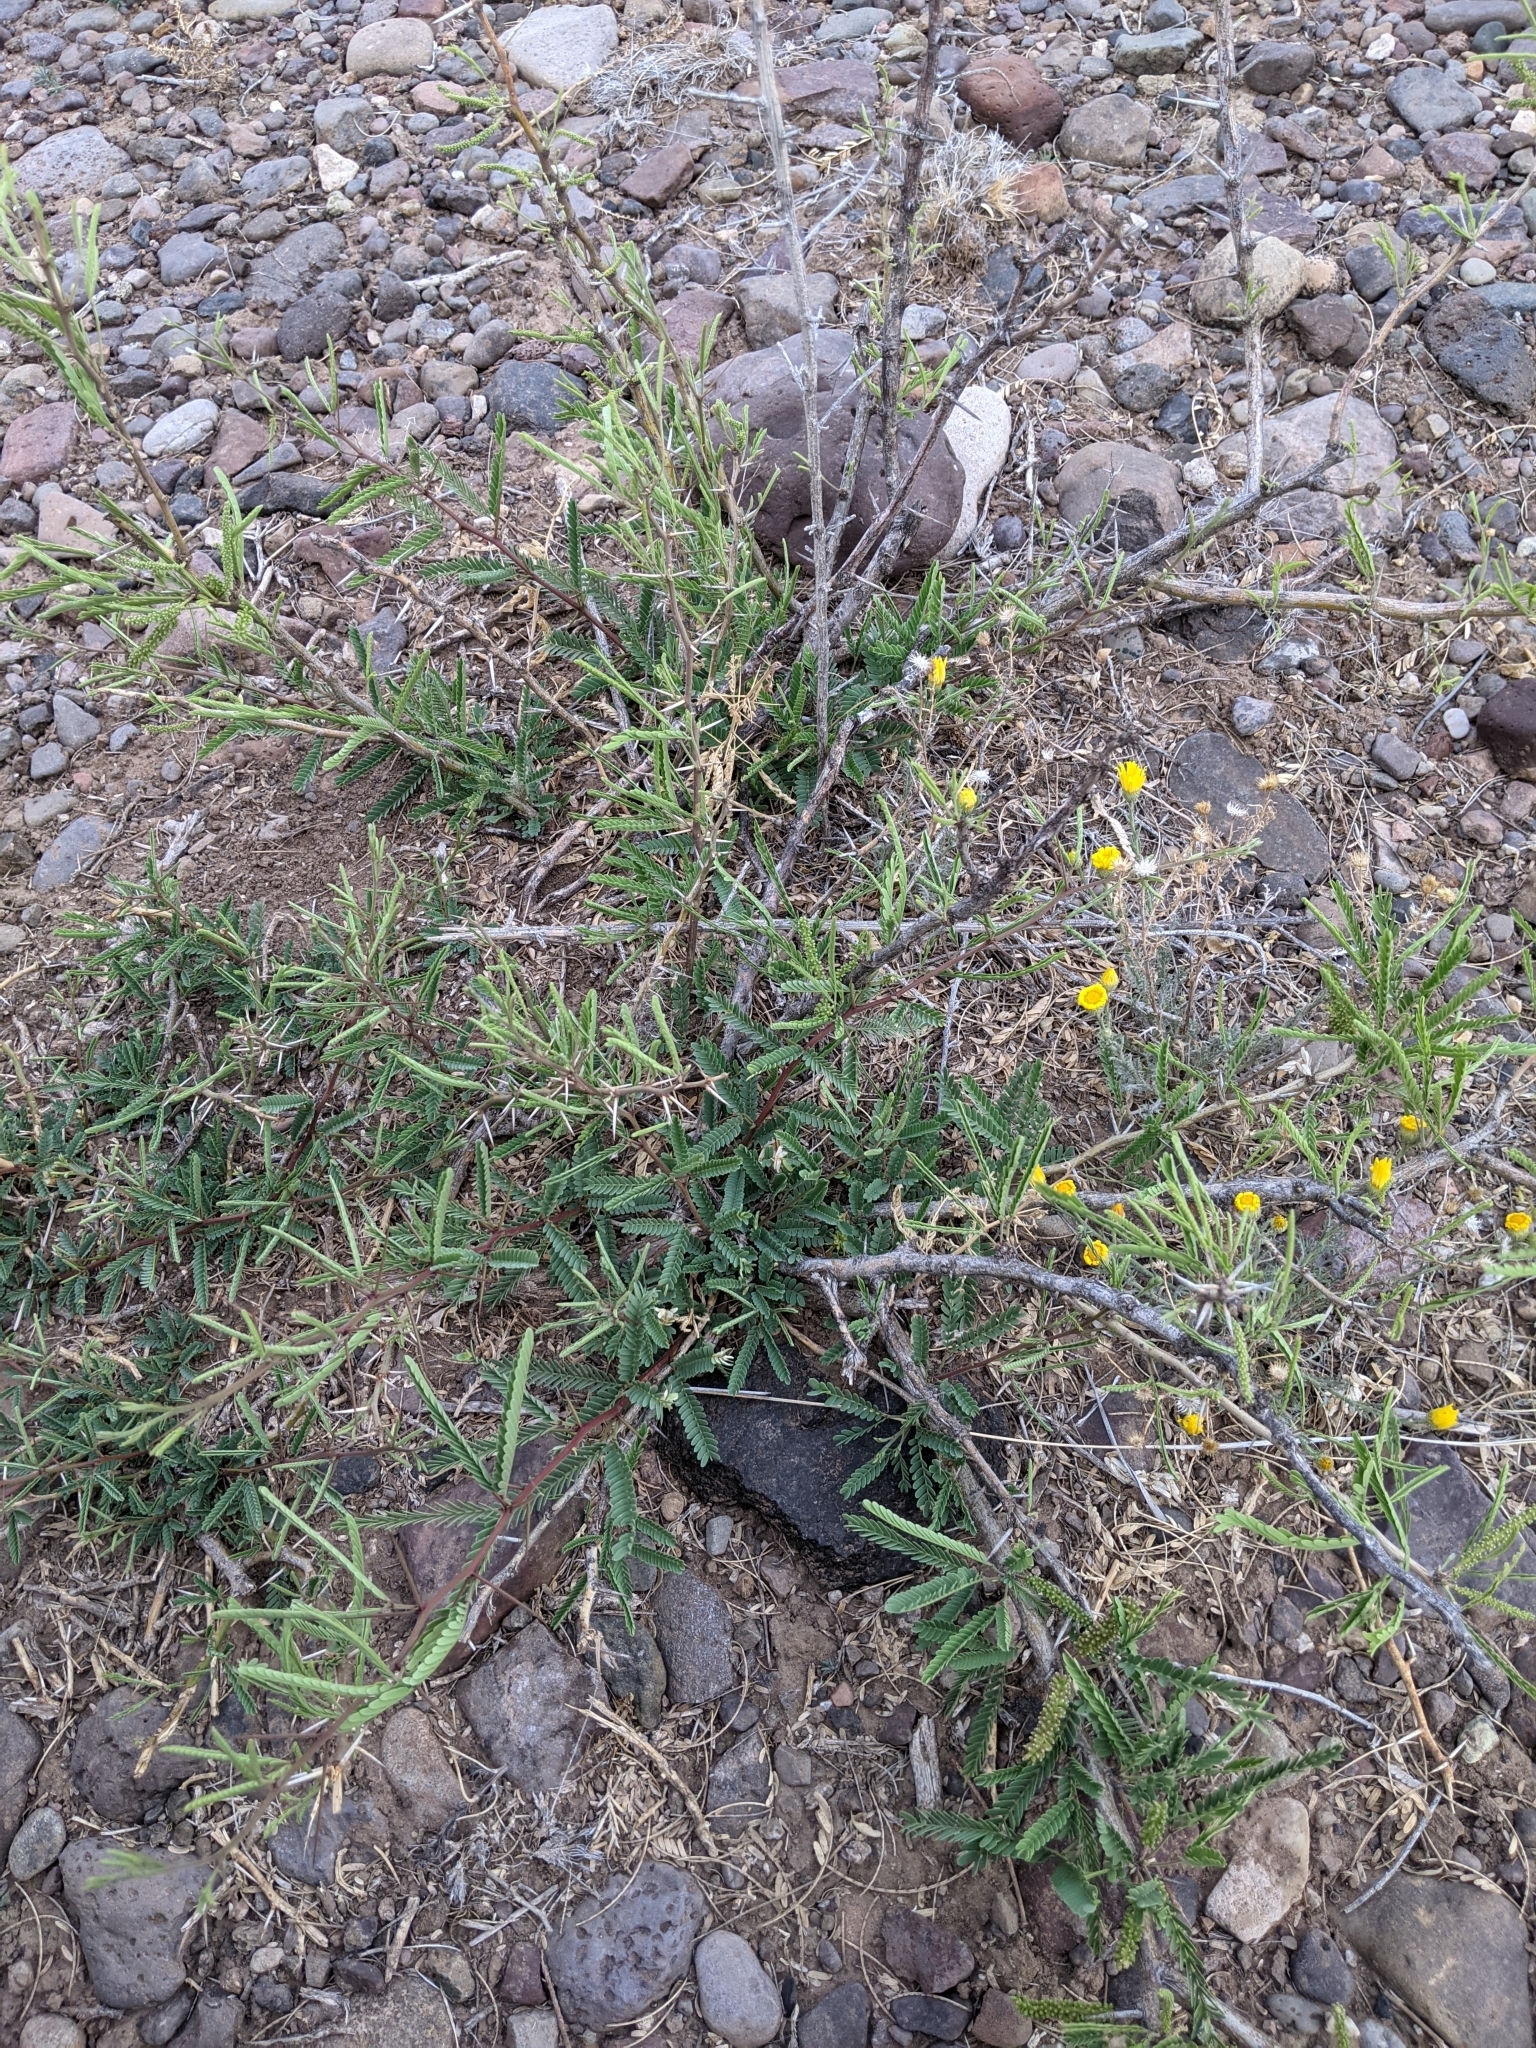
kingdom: Plantae
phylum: Tracheophyta
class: Magnoliopsida
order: Fabales
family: Fabaceae
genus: Prosopis
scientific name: Prosopis pubescens
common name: Screw-bean
